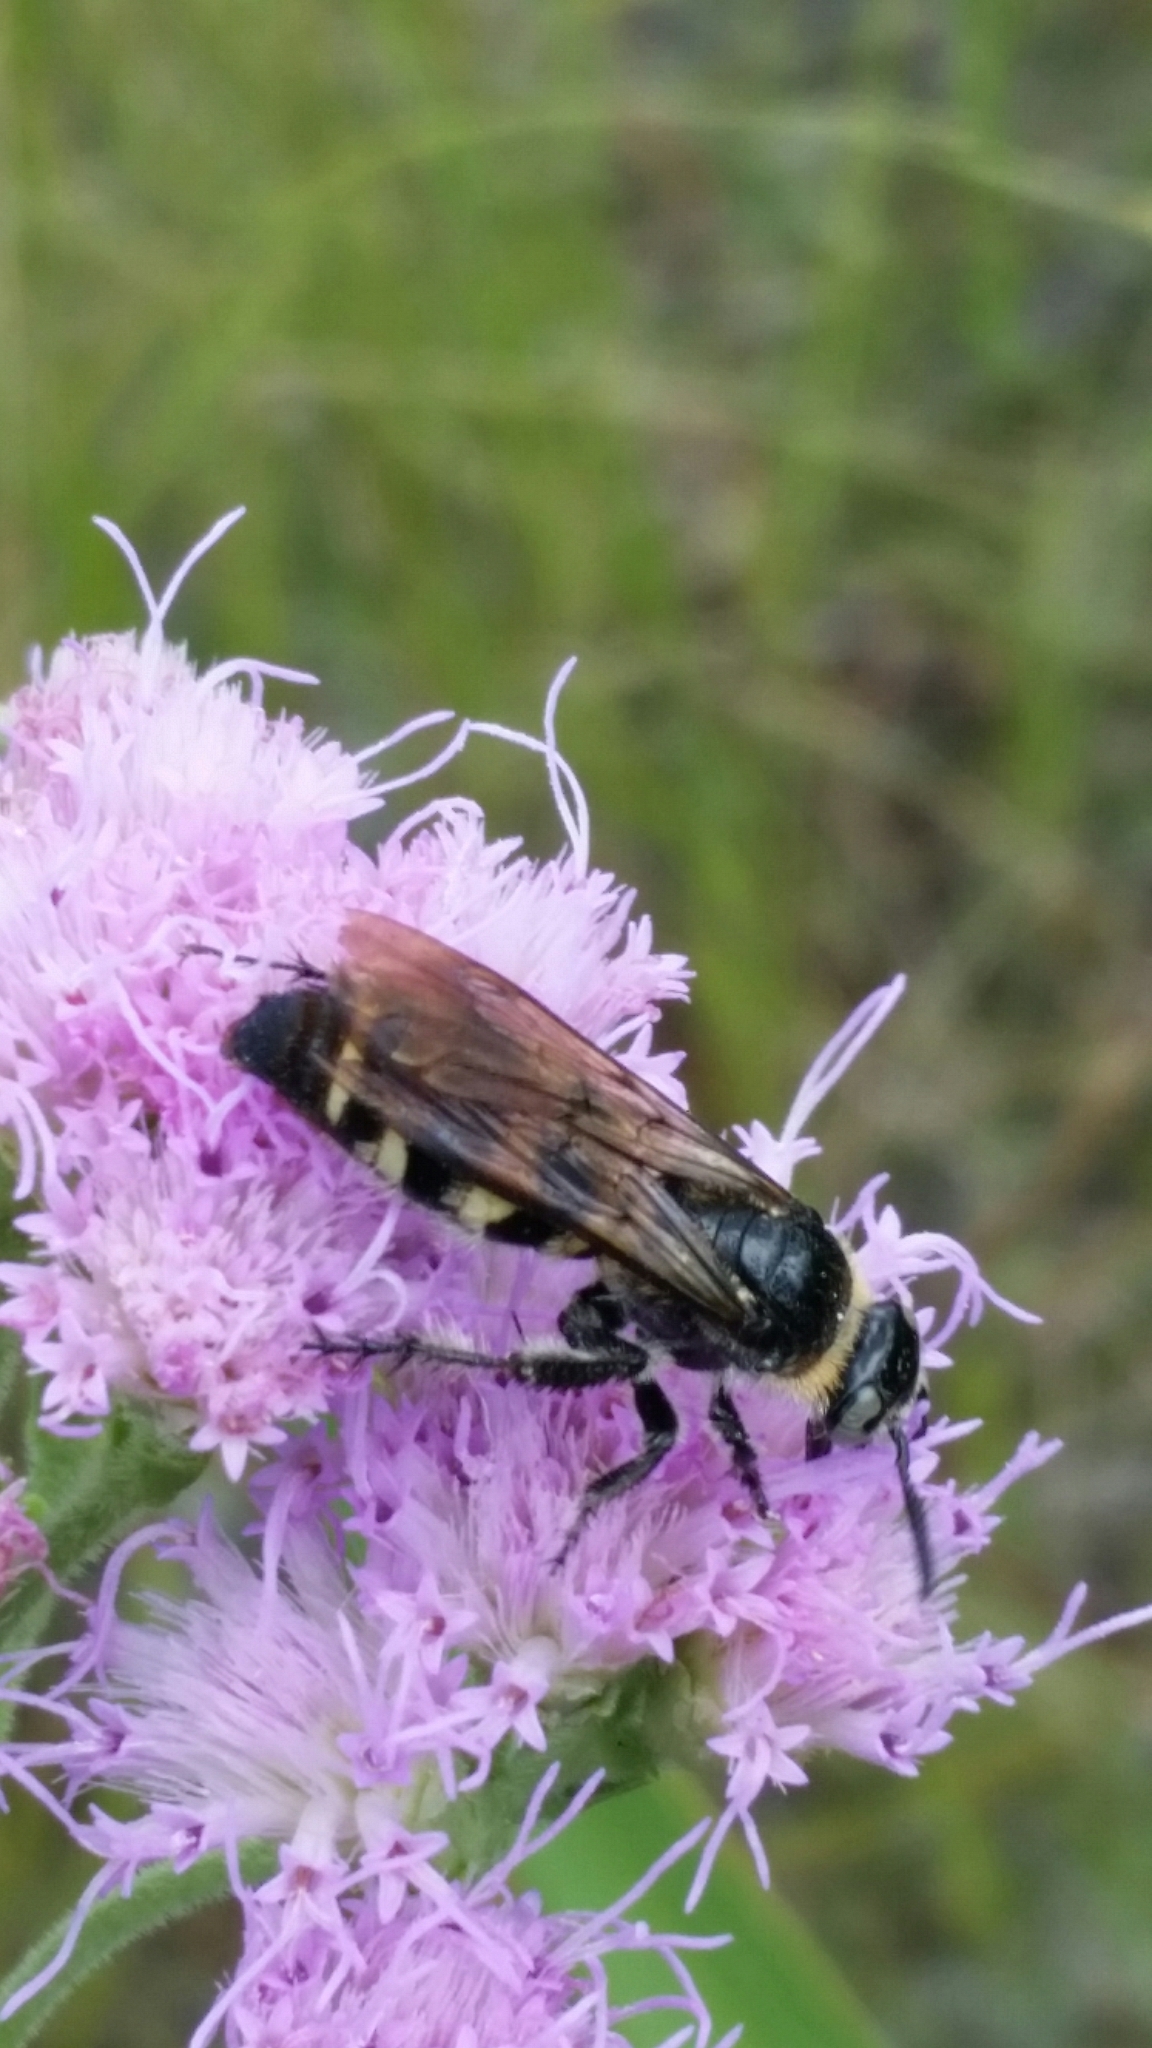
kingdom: Animalia
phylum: Arthropoda
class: Insecta
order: Hymenoptera
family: Scoliidae
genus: Dielis
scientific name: Dielis
